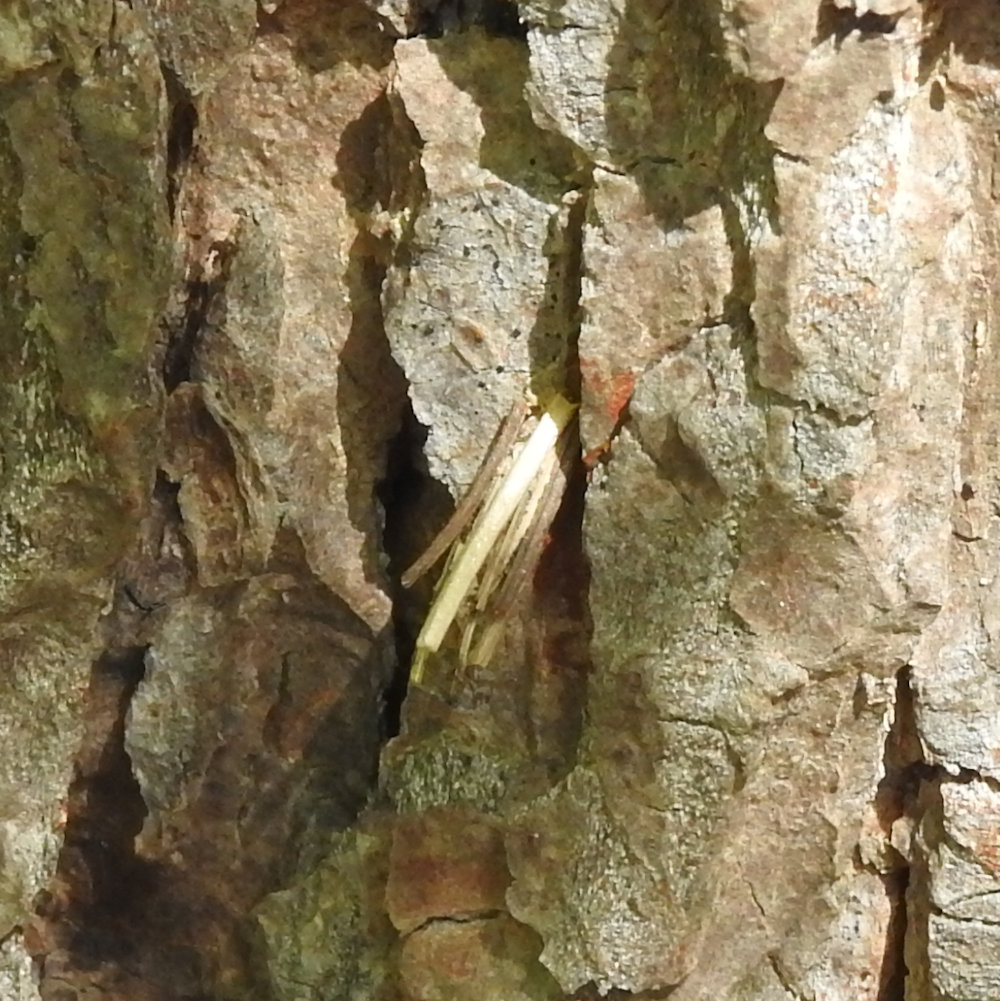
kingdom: Animalia
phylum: Arthropoda
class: Insecta
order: Lepidoptera
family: Psychidae
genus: Psyche
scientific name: Psyche casta
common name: Common sweep
